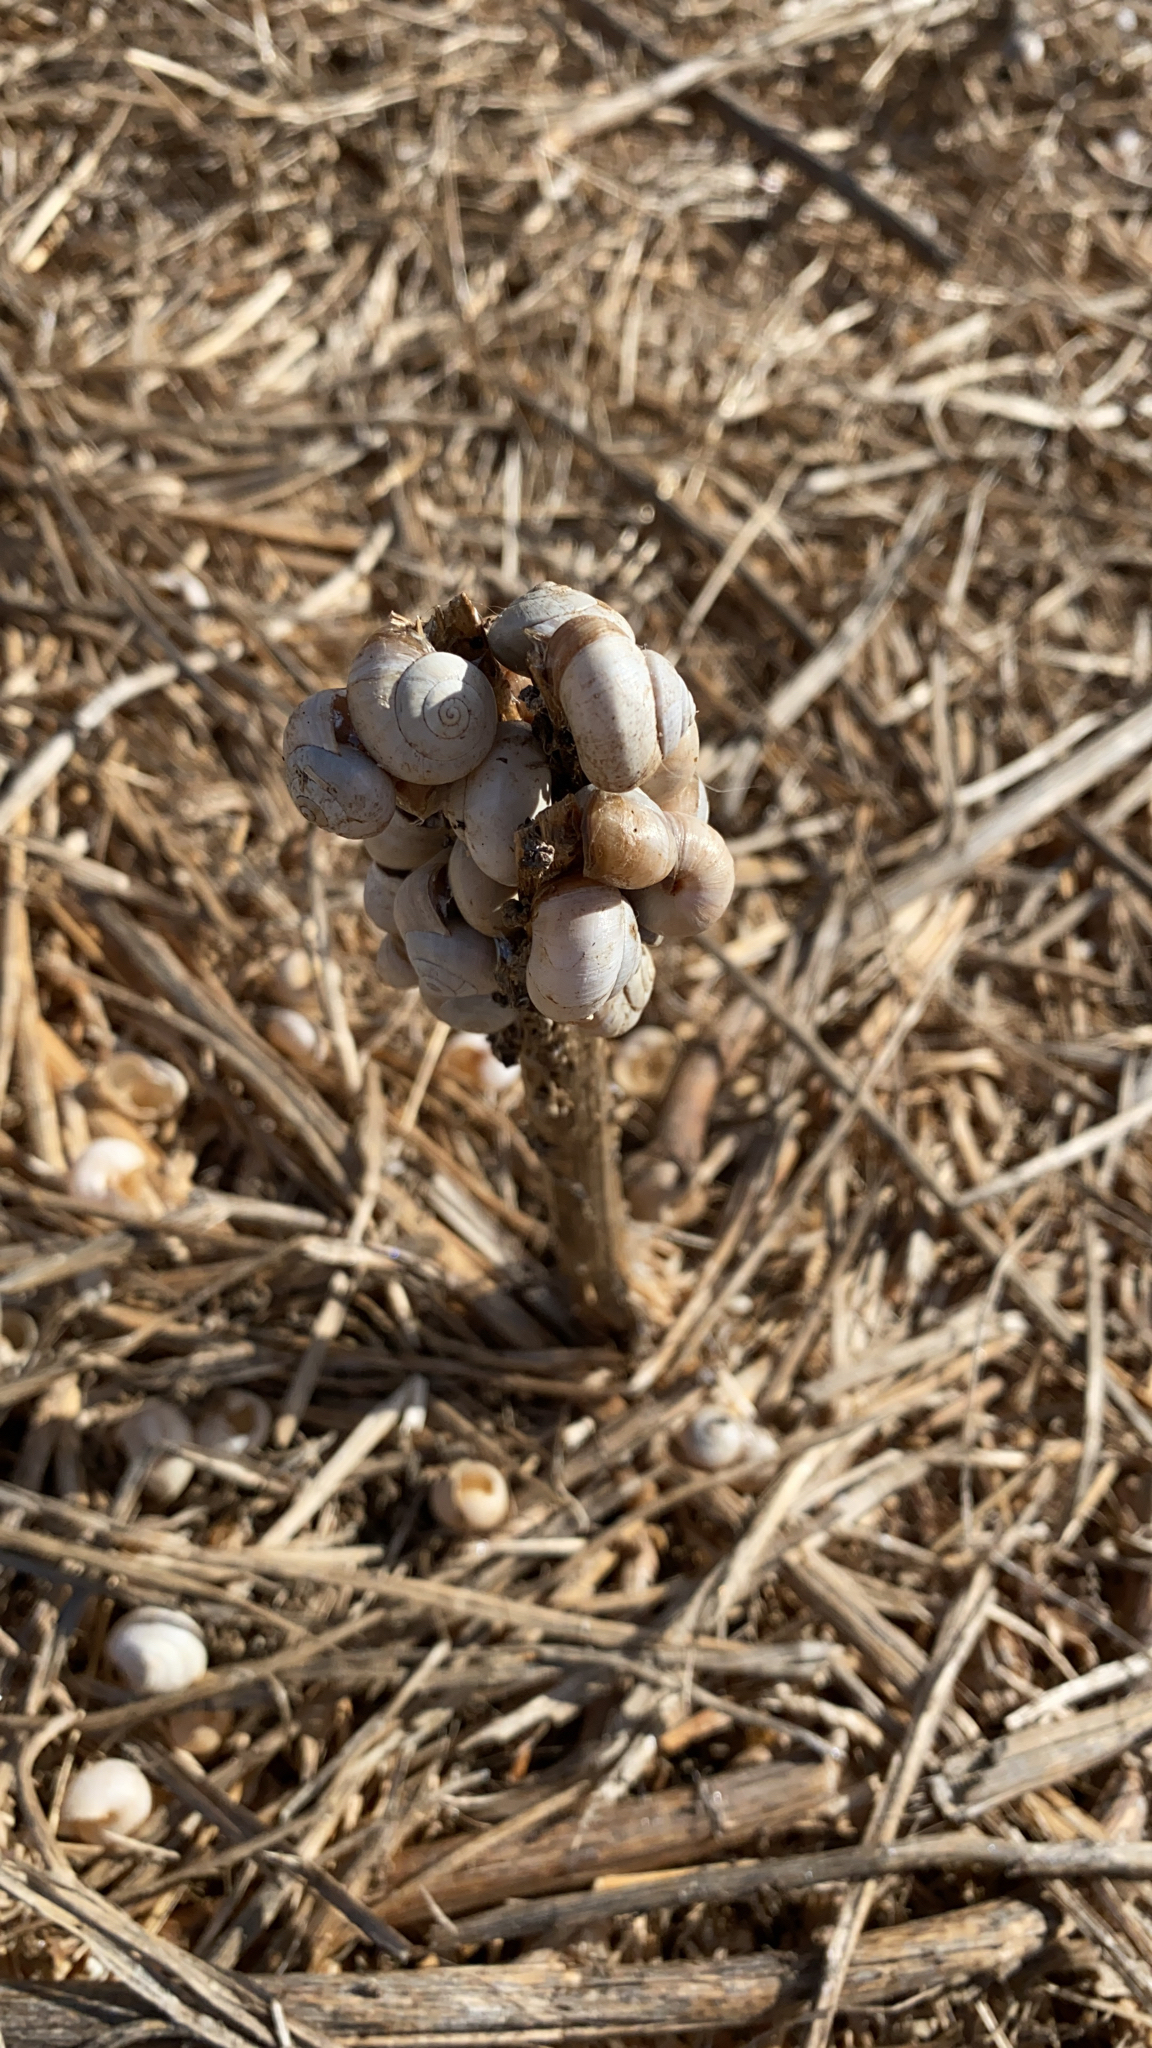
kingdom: Animalia
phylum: Mollusca
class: Gastropoda
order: Stylommatophora
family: Helicidae
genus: Theba
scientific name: Theba pisana
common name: White snail
